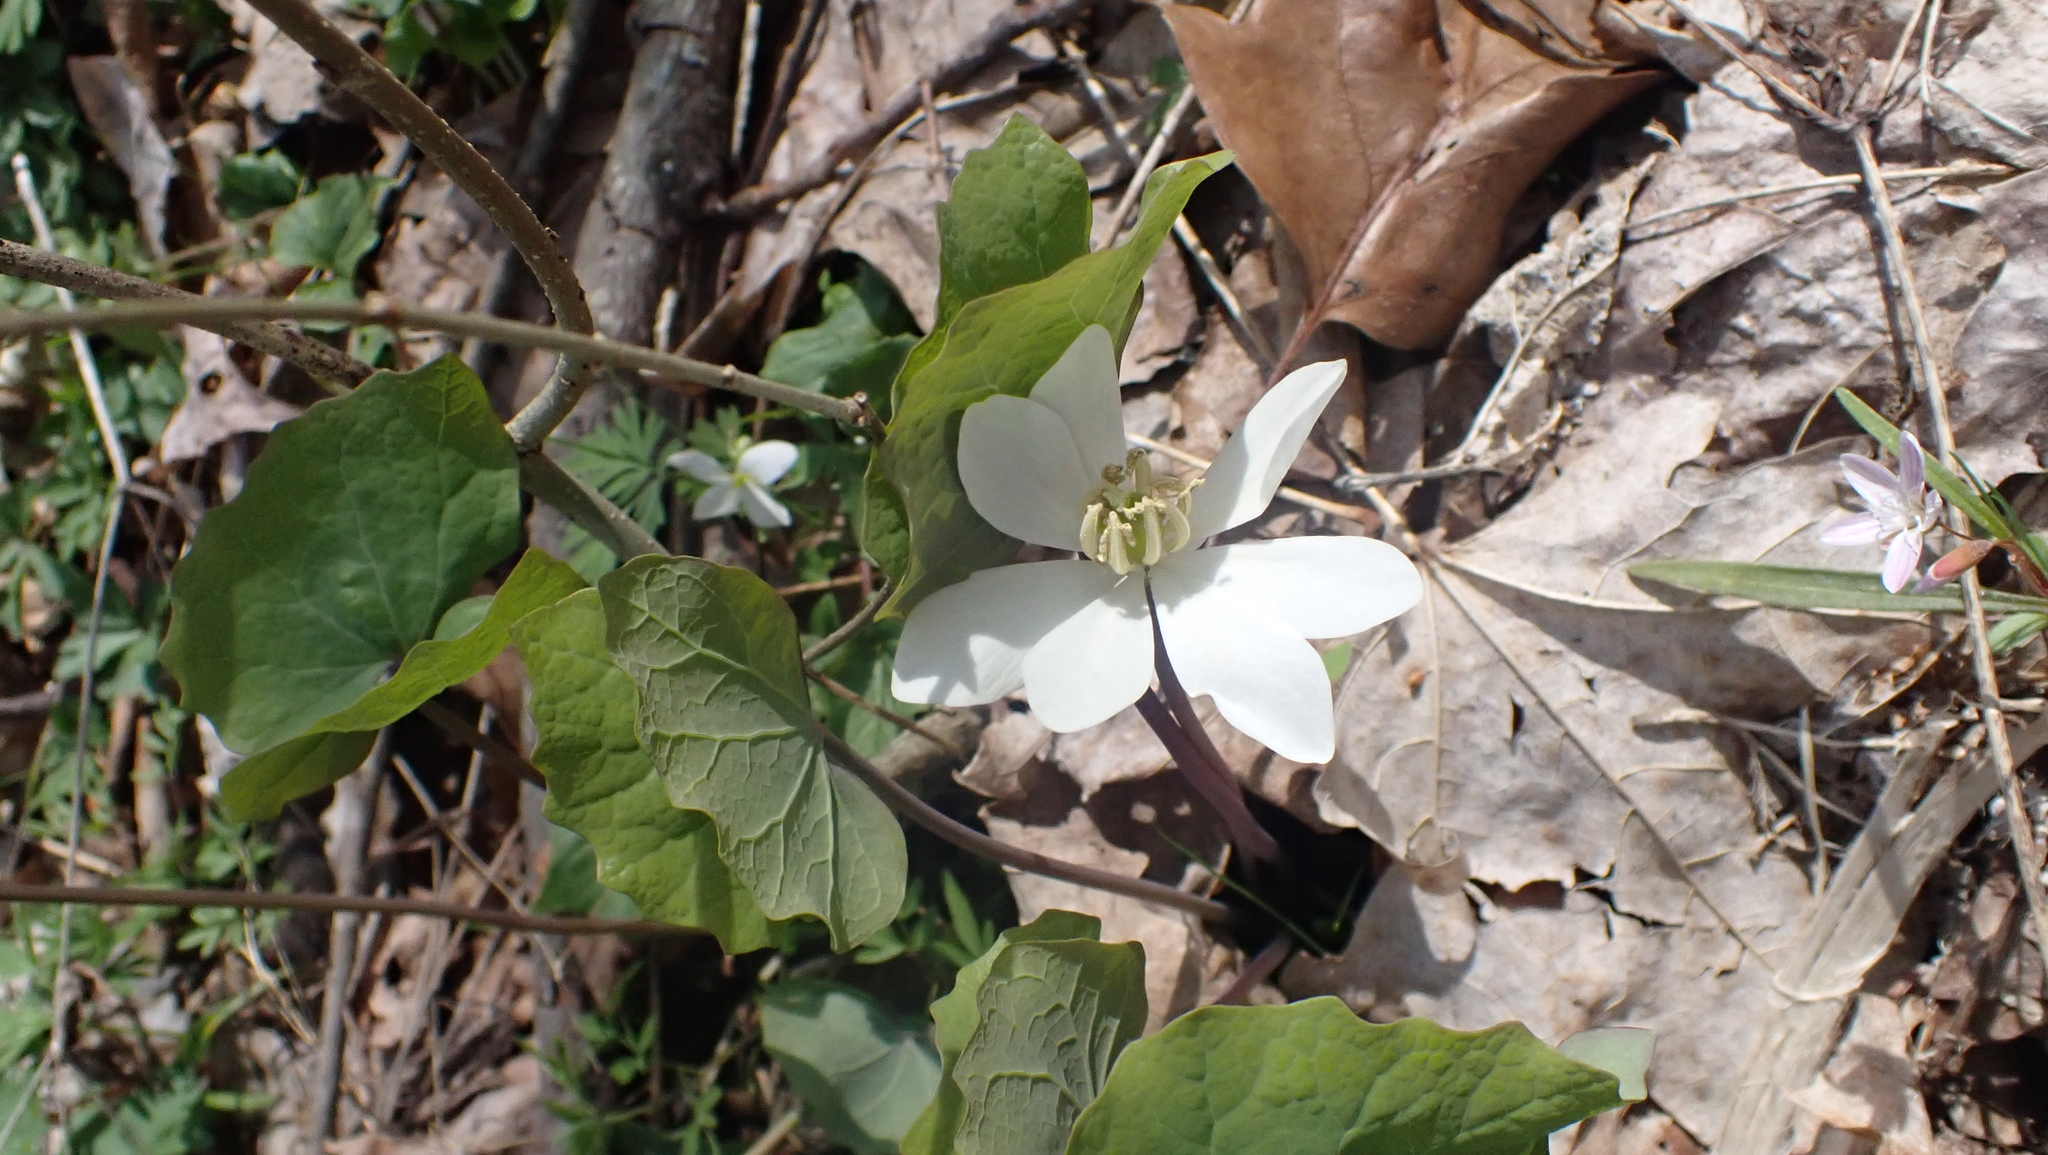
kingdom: Plantae
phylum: Tracheophyta
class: Magnoliopsida
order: Ranunculales
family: Berberidaceae
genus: Jeffersonia
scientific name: Jeffersonia diphylla
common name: Rheumatism-root
